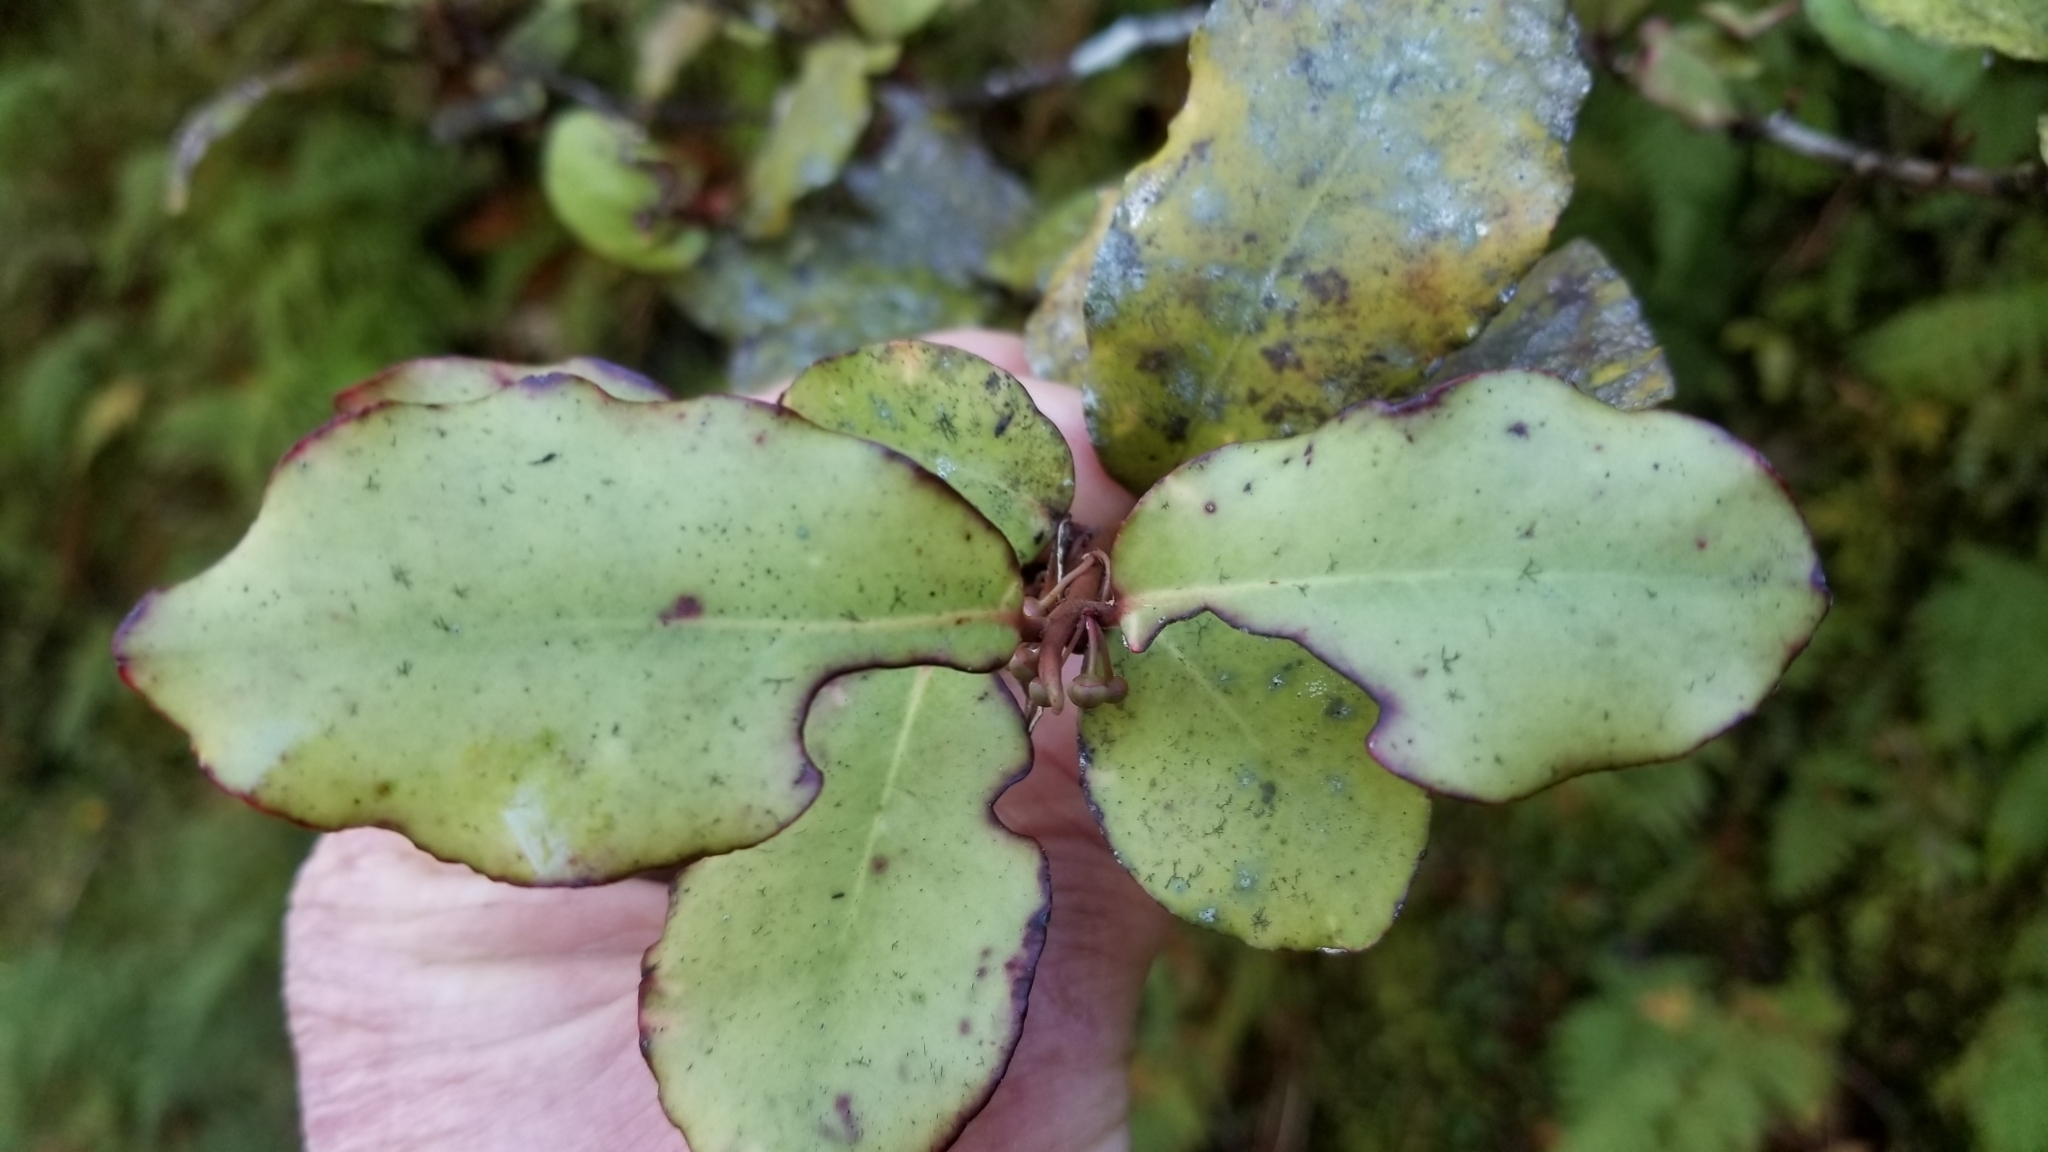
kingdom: Plantae
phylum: Tracheophyta
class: Magnoliopsida
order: Canellales
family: Winteraceae
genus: Pseudowintera
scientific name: Pseudowintera colorata
